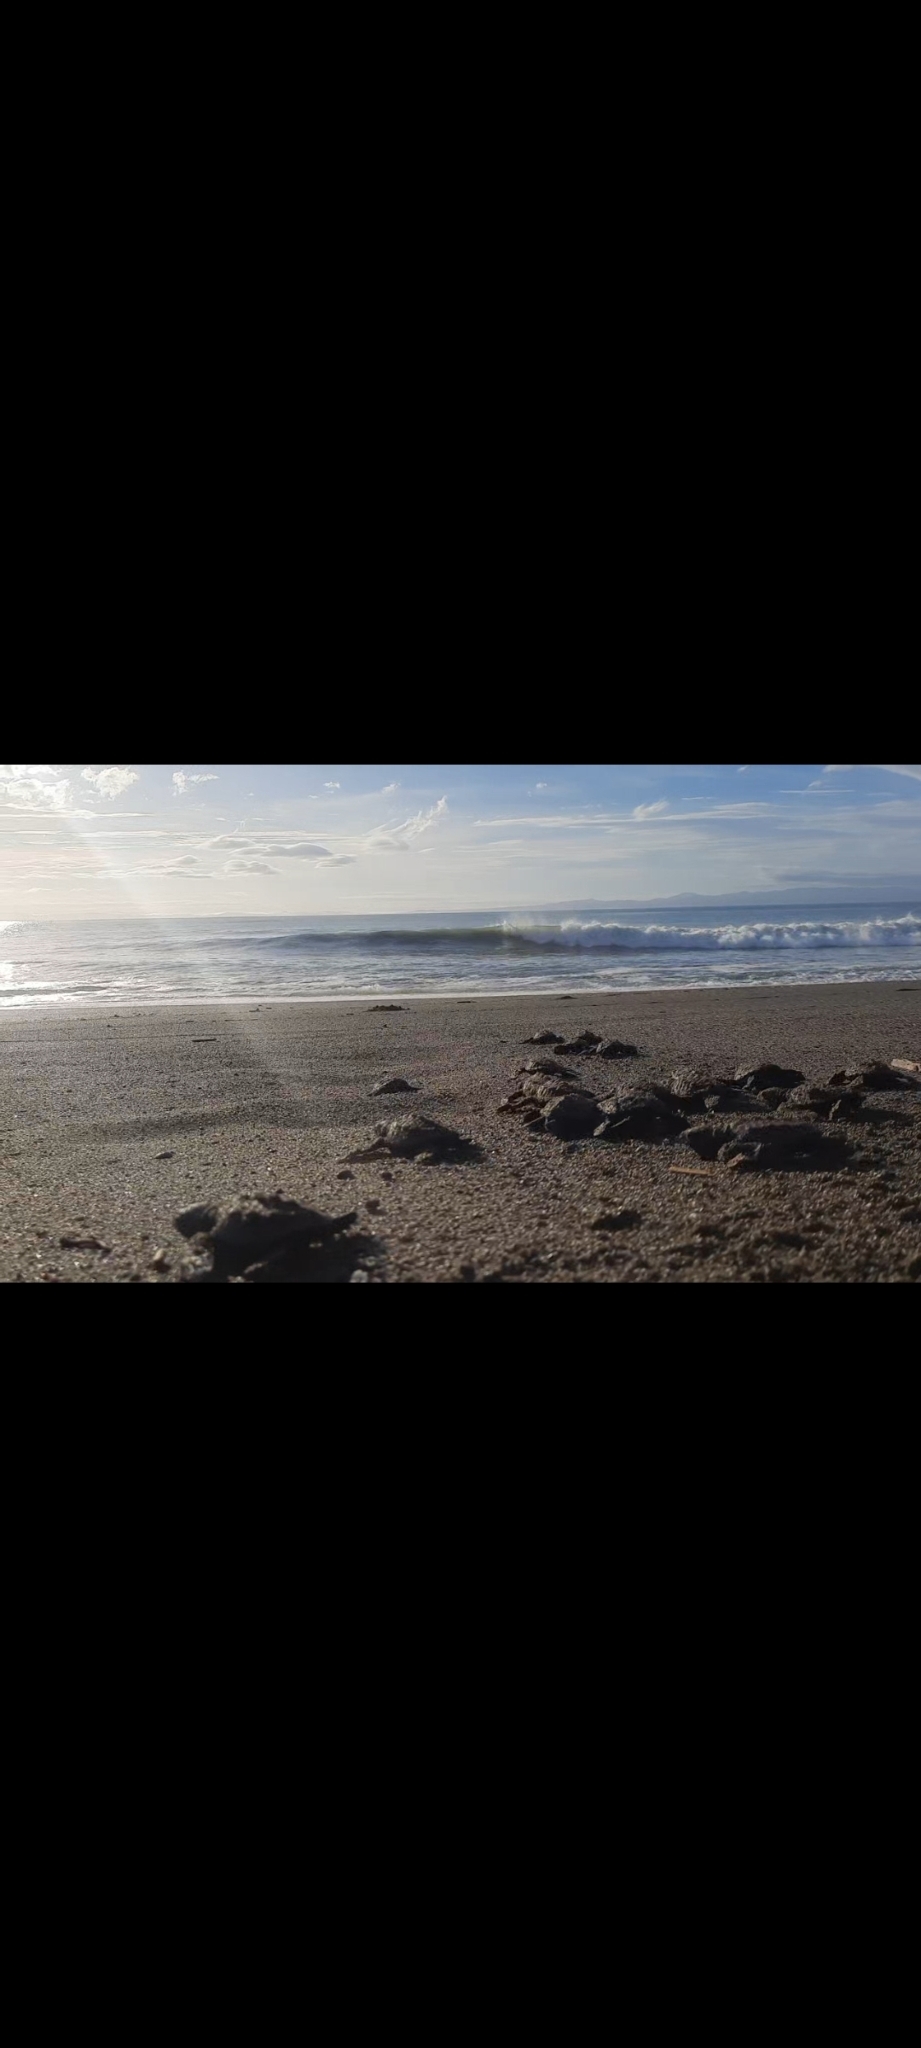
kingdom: Animalia
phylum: Chordata
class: Testudines
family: Cheloniidae
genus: Lepidochelys
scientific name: Lepidochelys olivacea
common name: Olive ridley
